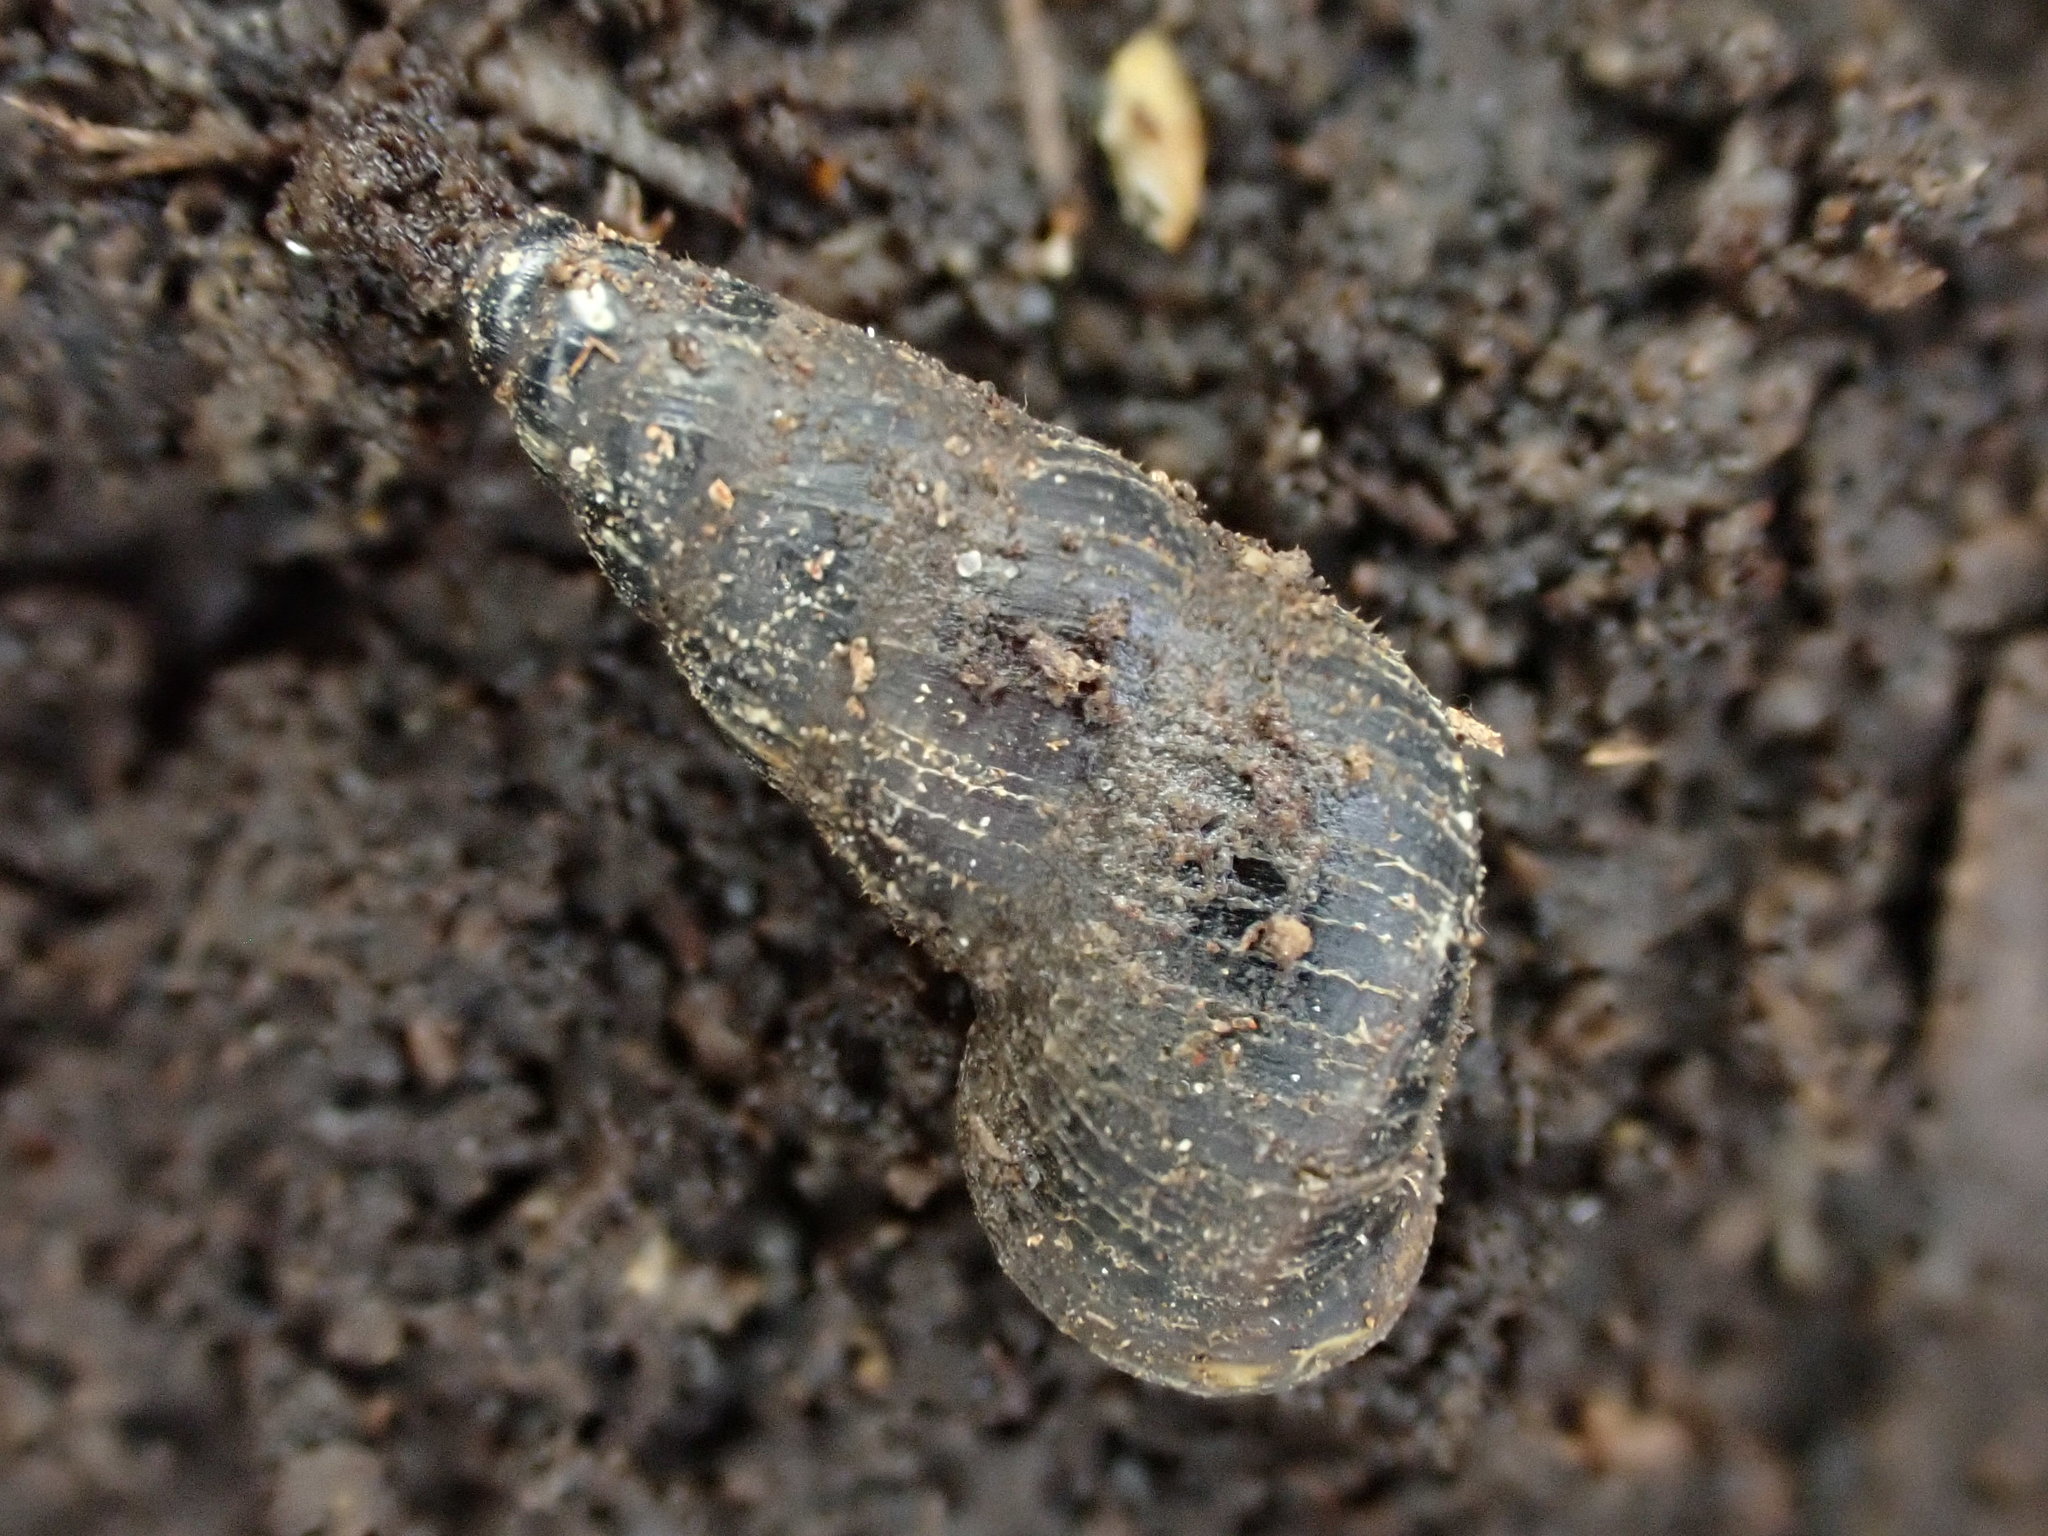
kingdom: Animalia
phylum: Mollusca
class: Gastropoda
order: Architaenioglossa
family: Pupinidae
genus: Liarea
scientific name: Liarea turriculata
